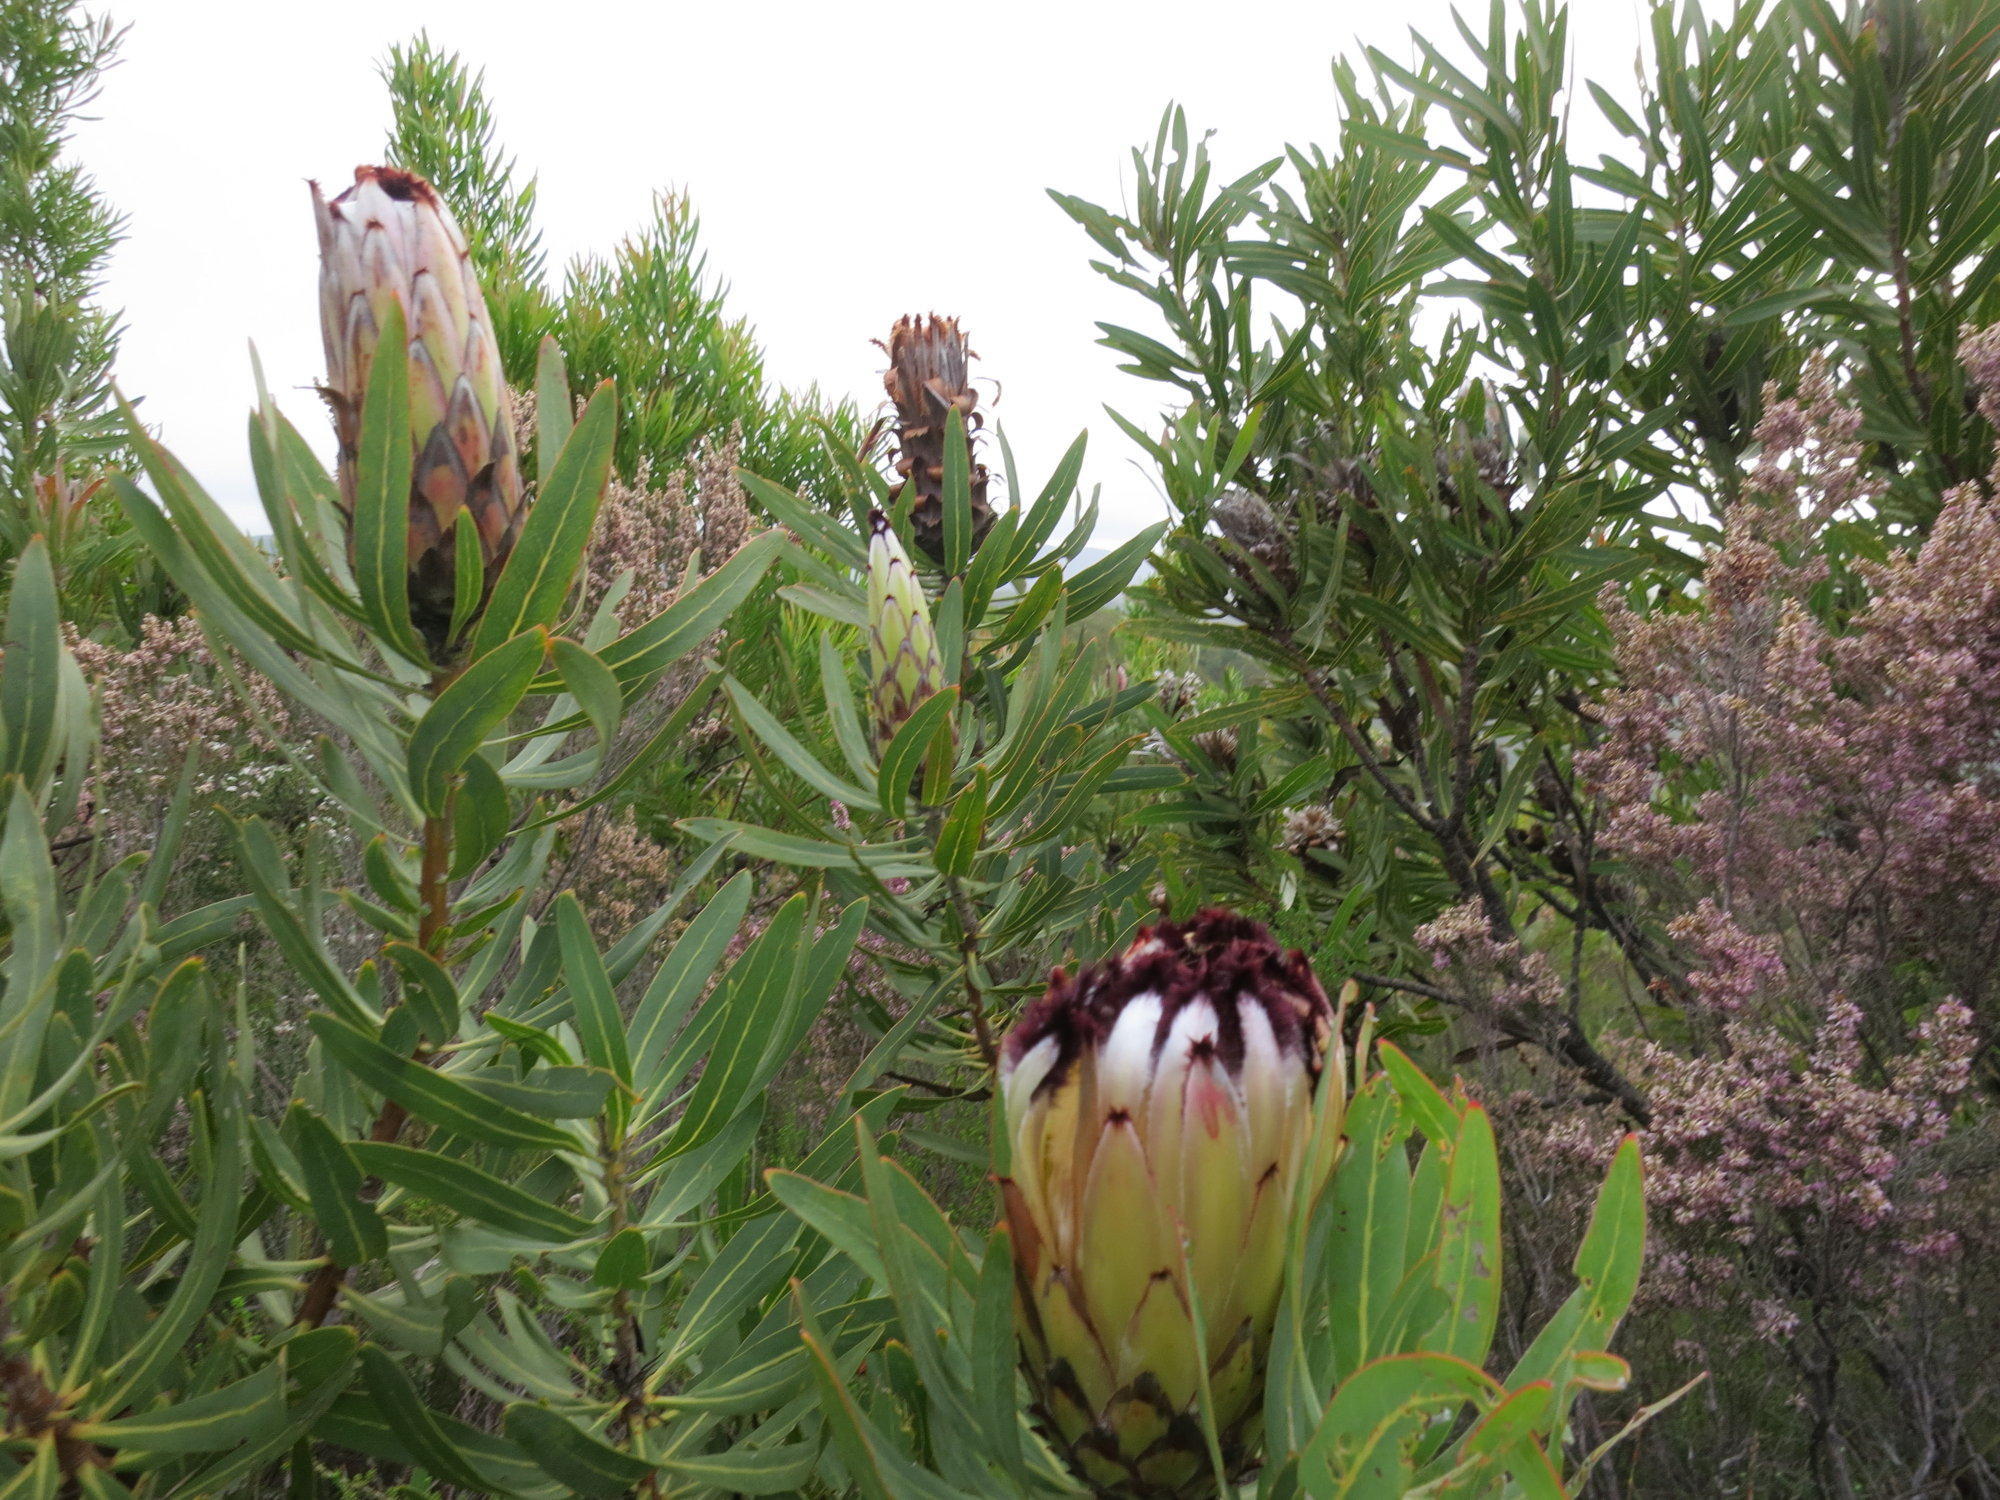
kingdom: Plantae
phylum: Tracheophyta
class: Magnoliopsida
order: Proteales
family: Proteaceae
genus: Protea
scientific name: Protea neriifolia
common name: Blue sugarbush
